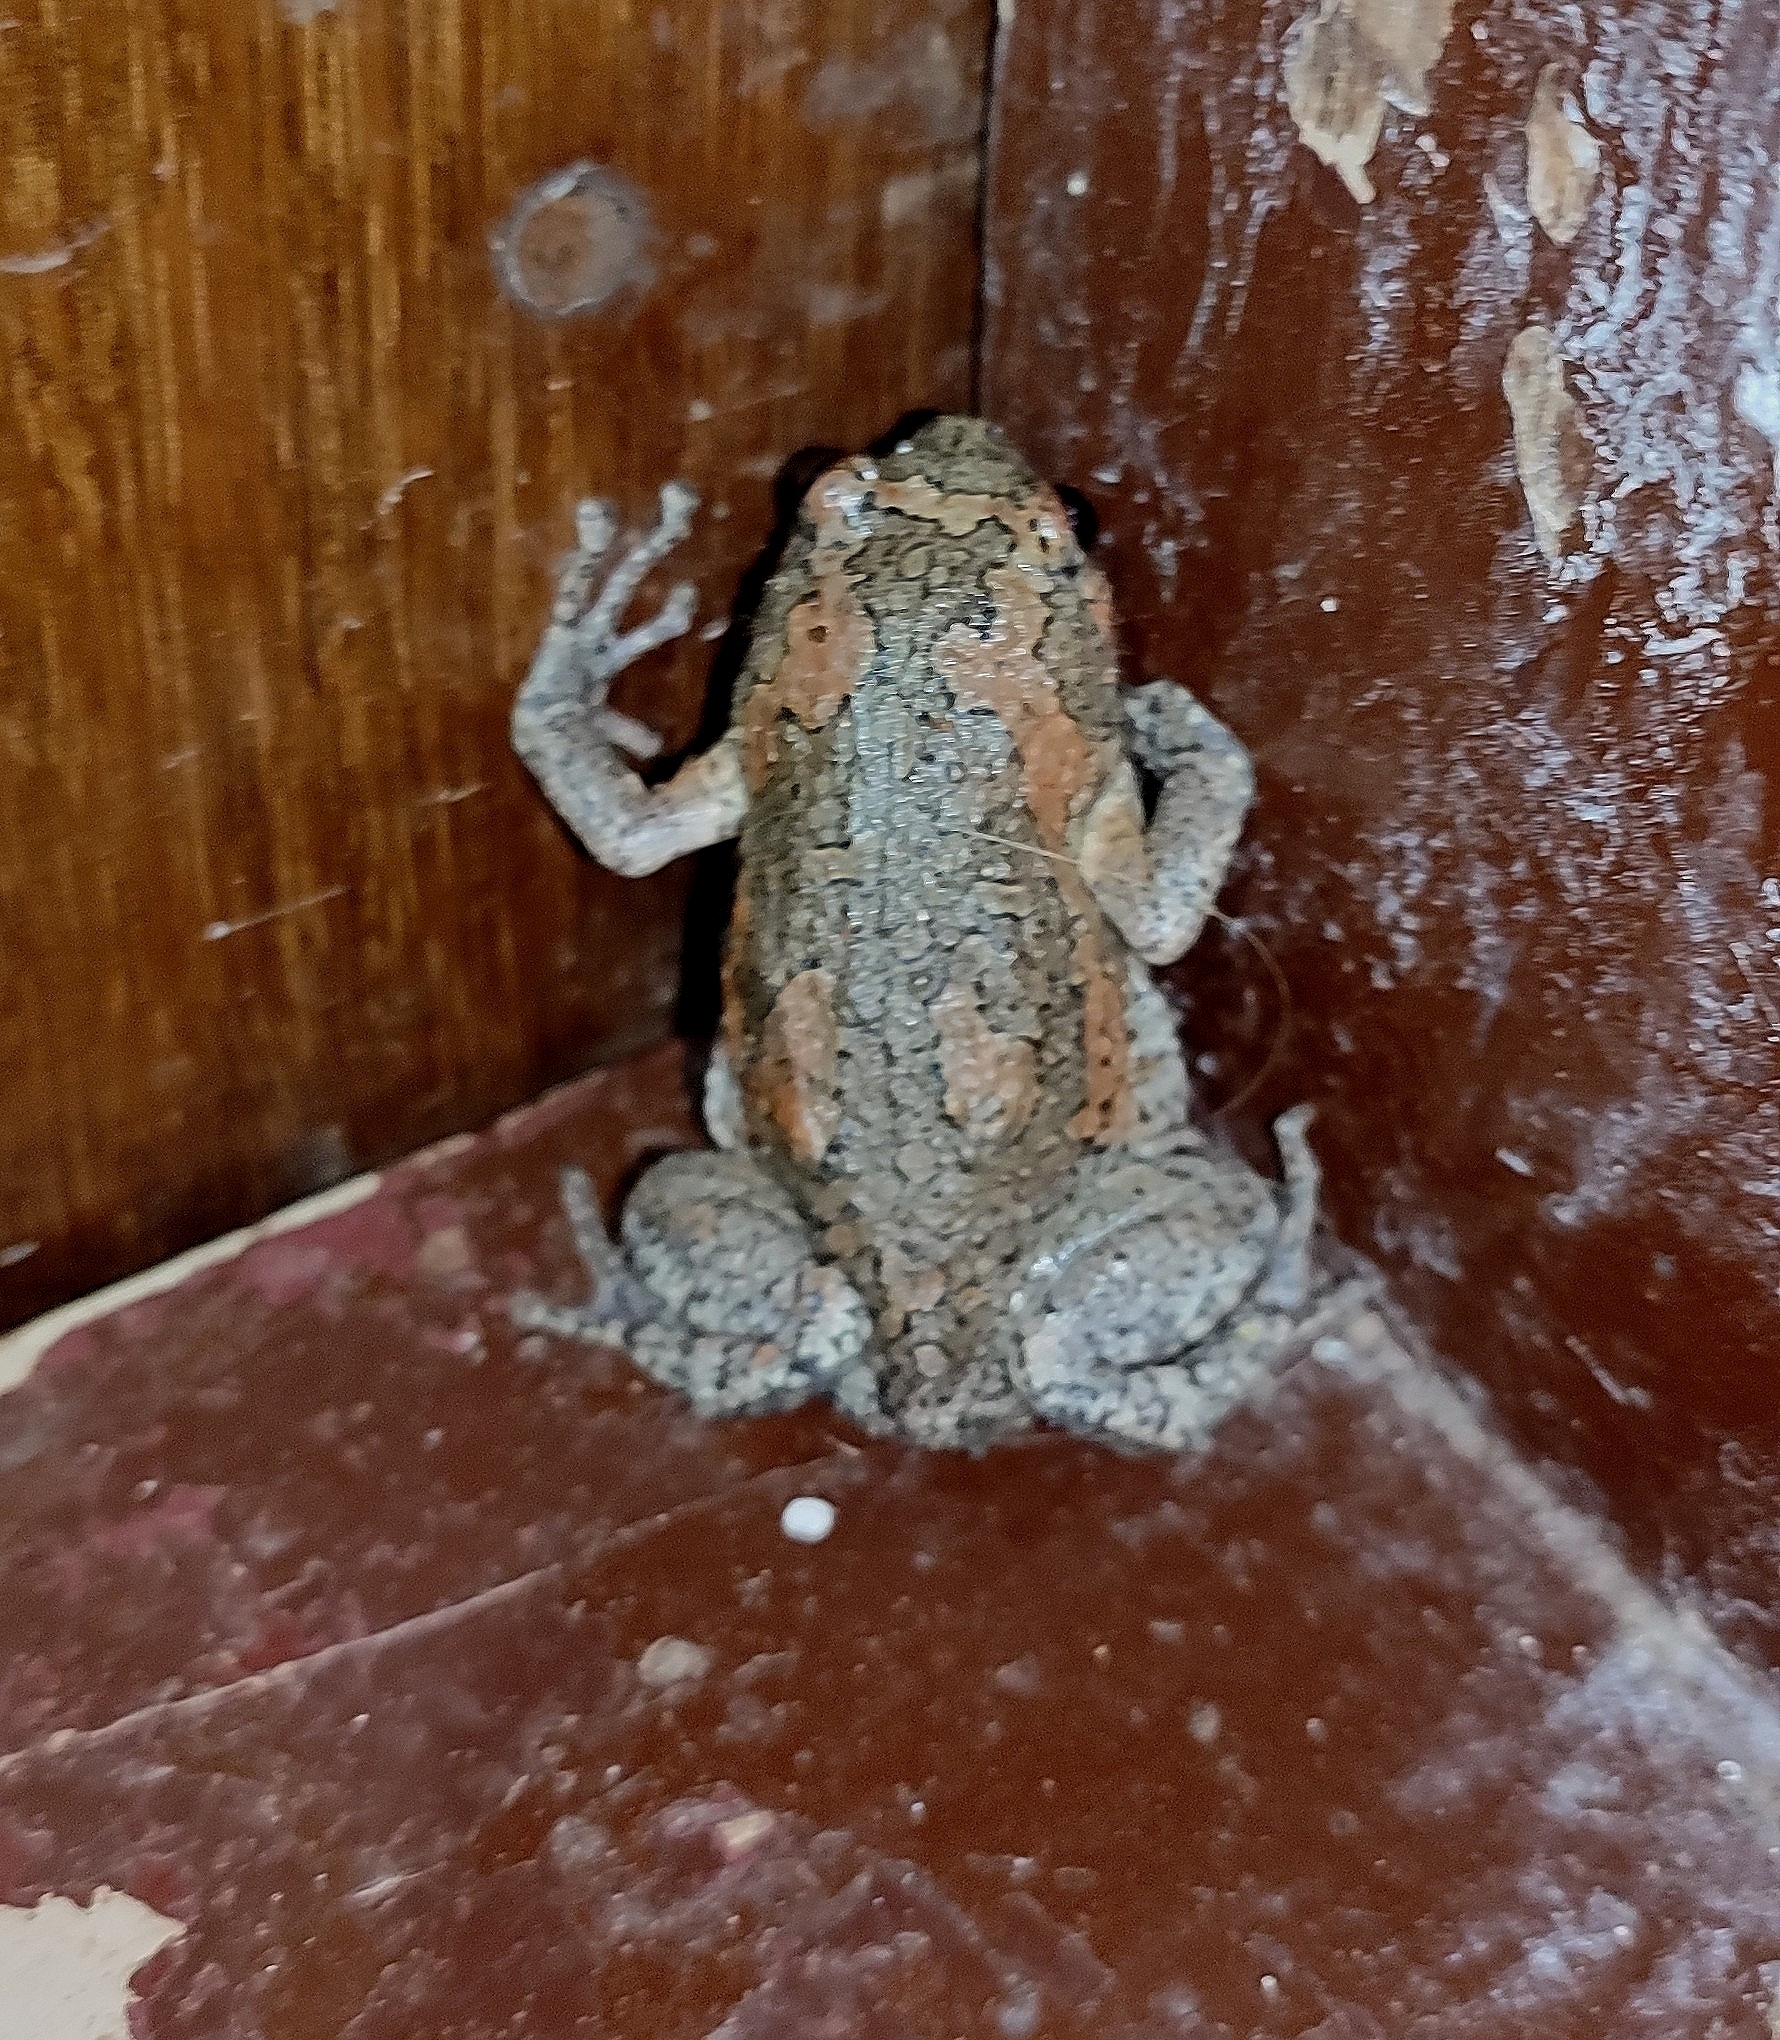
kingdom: Animalia
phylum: Chordata
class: Amphibia
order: Anura
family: Microhylidae
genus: Uperodon
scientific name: Uperodon taprobanicus
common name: Ceylon kaloula
